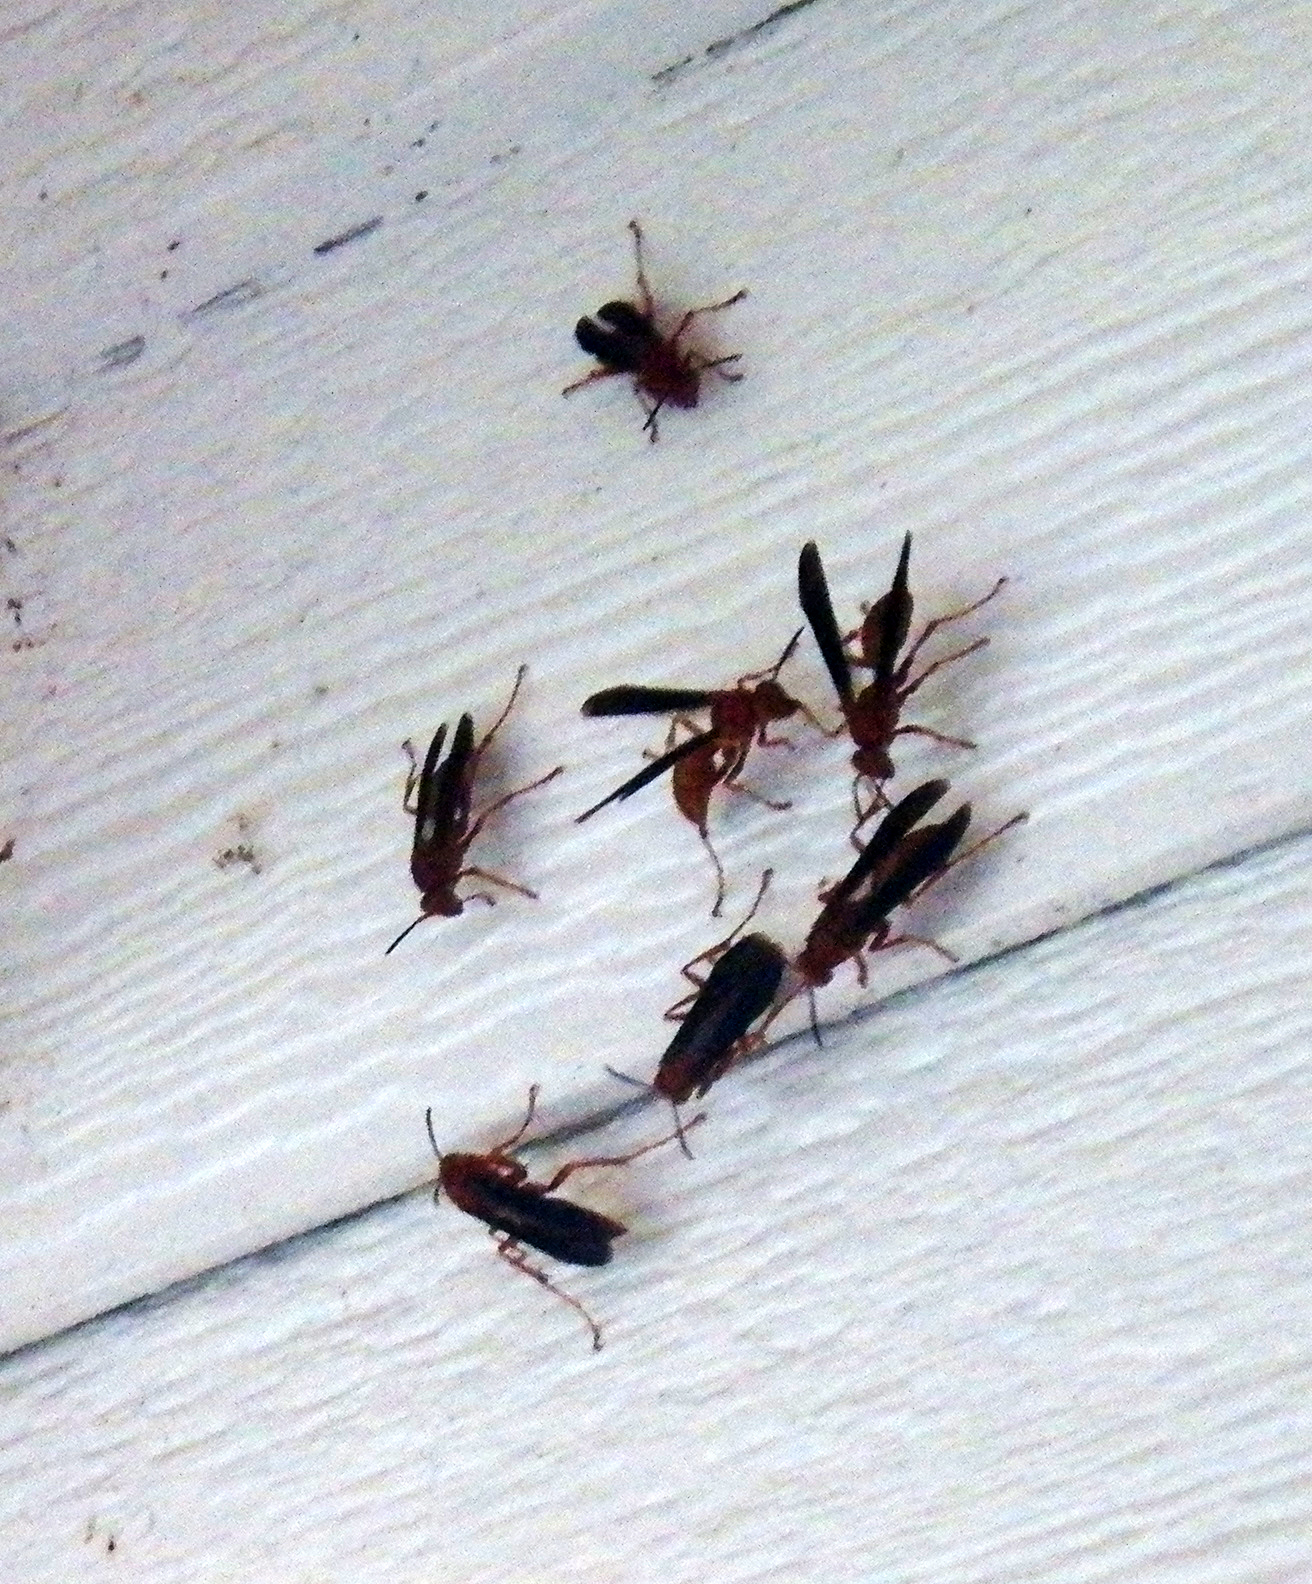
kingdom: Animalia
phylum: Arthropoda
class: Insecta
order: Hymenoptera
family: Vespidae
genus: Fuscopolistes
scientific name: Fuscopolistes
